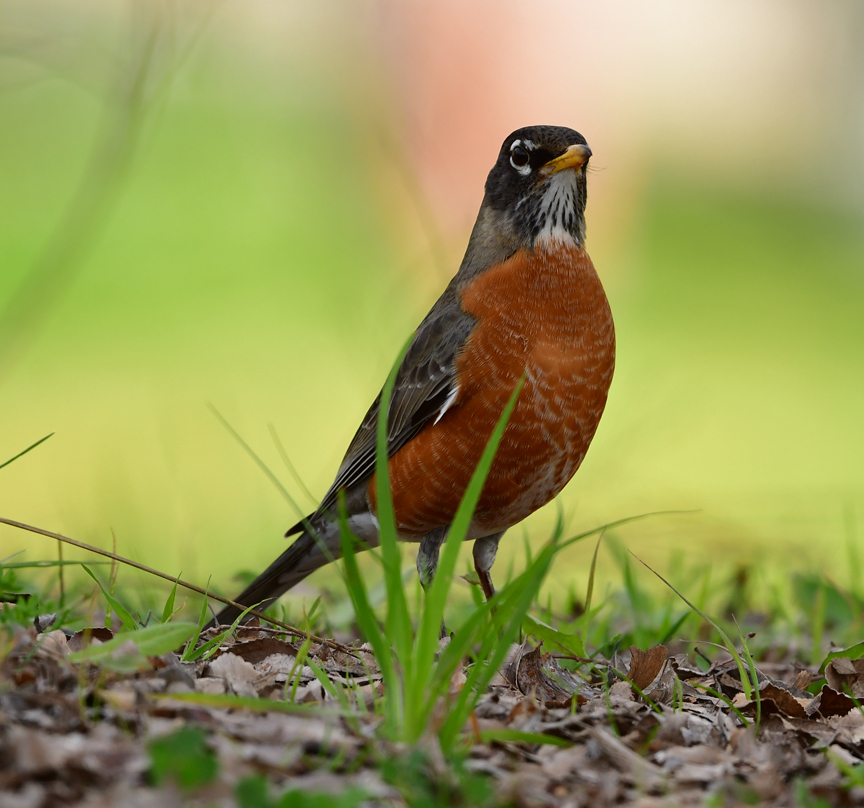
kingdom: Animalia
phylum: Chordata
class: Aves
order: Passeriformes
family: Turdidae
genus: Turdus
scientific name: Turdus migratorius
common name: American robin
